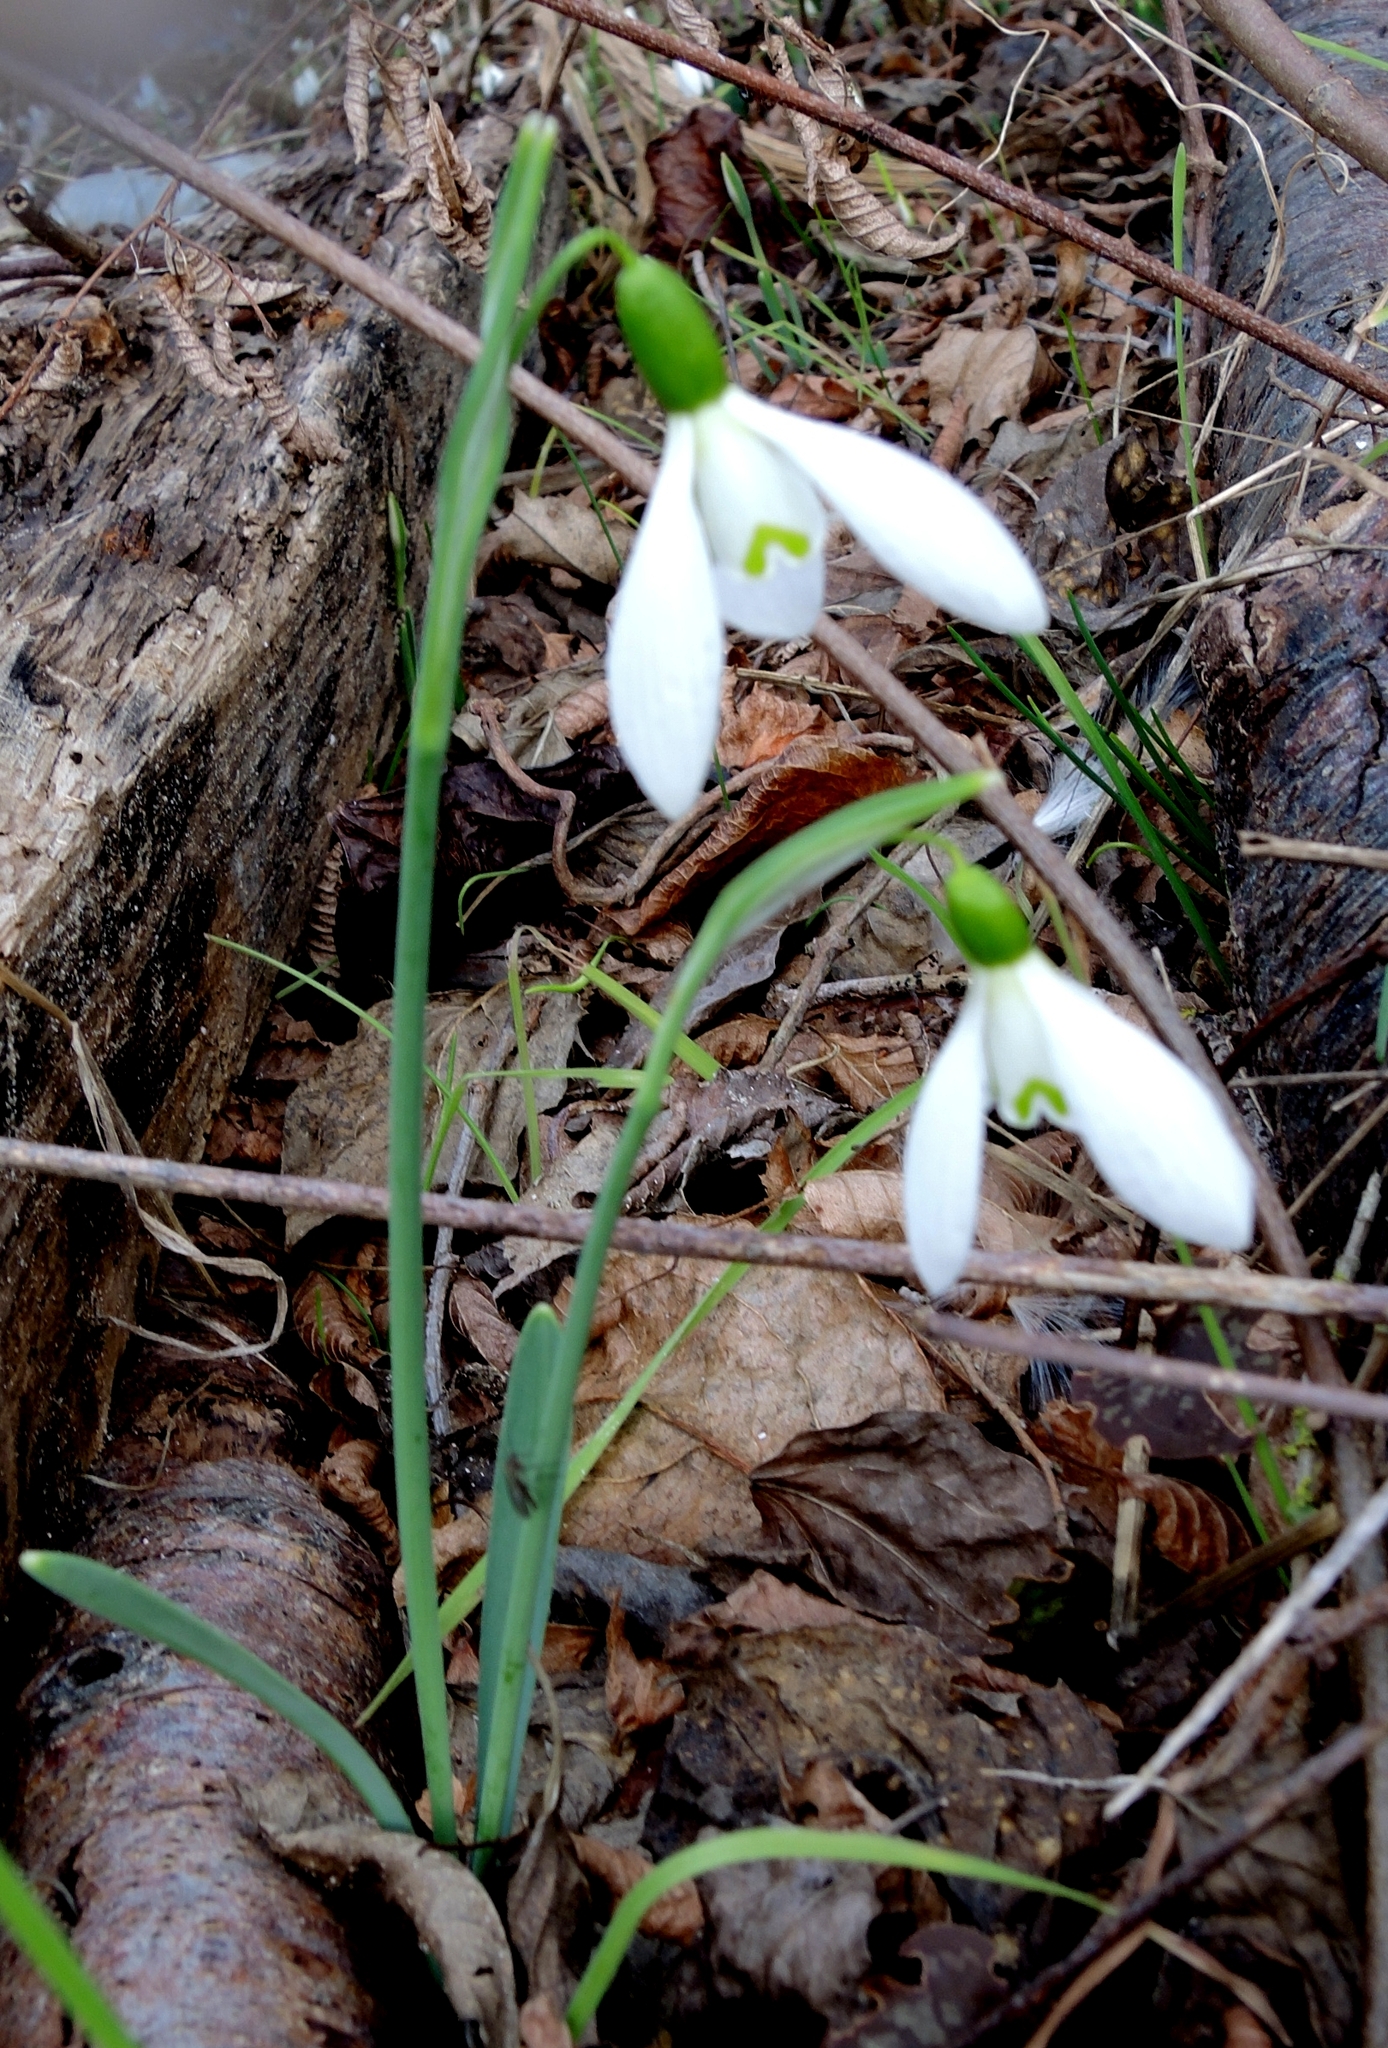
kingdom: Plantae
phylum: Tracheophyta
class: Liliopsida
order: Asparagales
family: Amaryllidaceae
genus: Galanthus
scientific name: Galanthus nivalis
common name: Snowdrop
